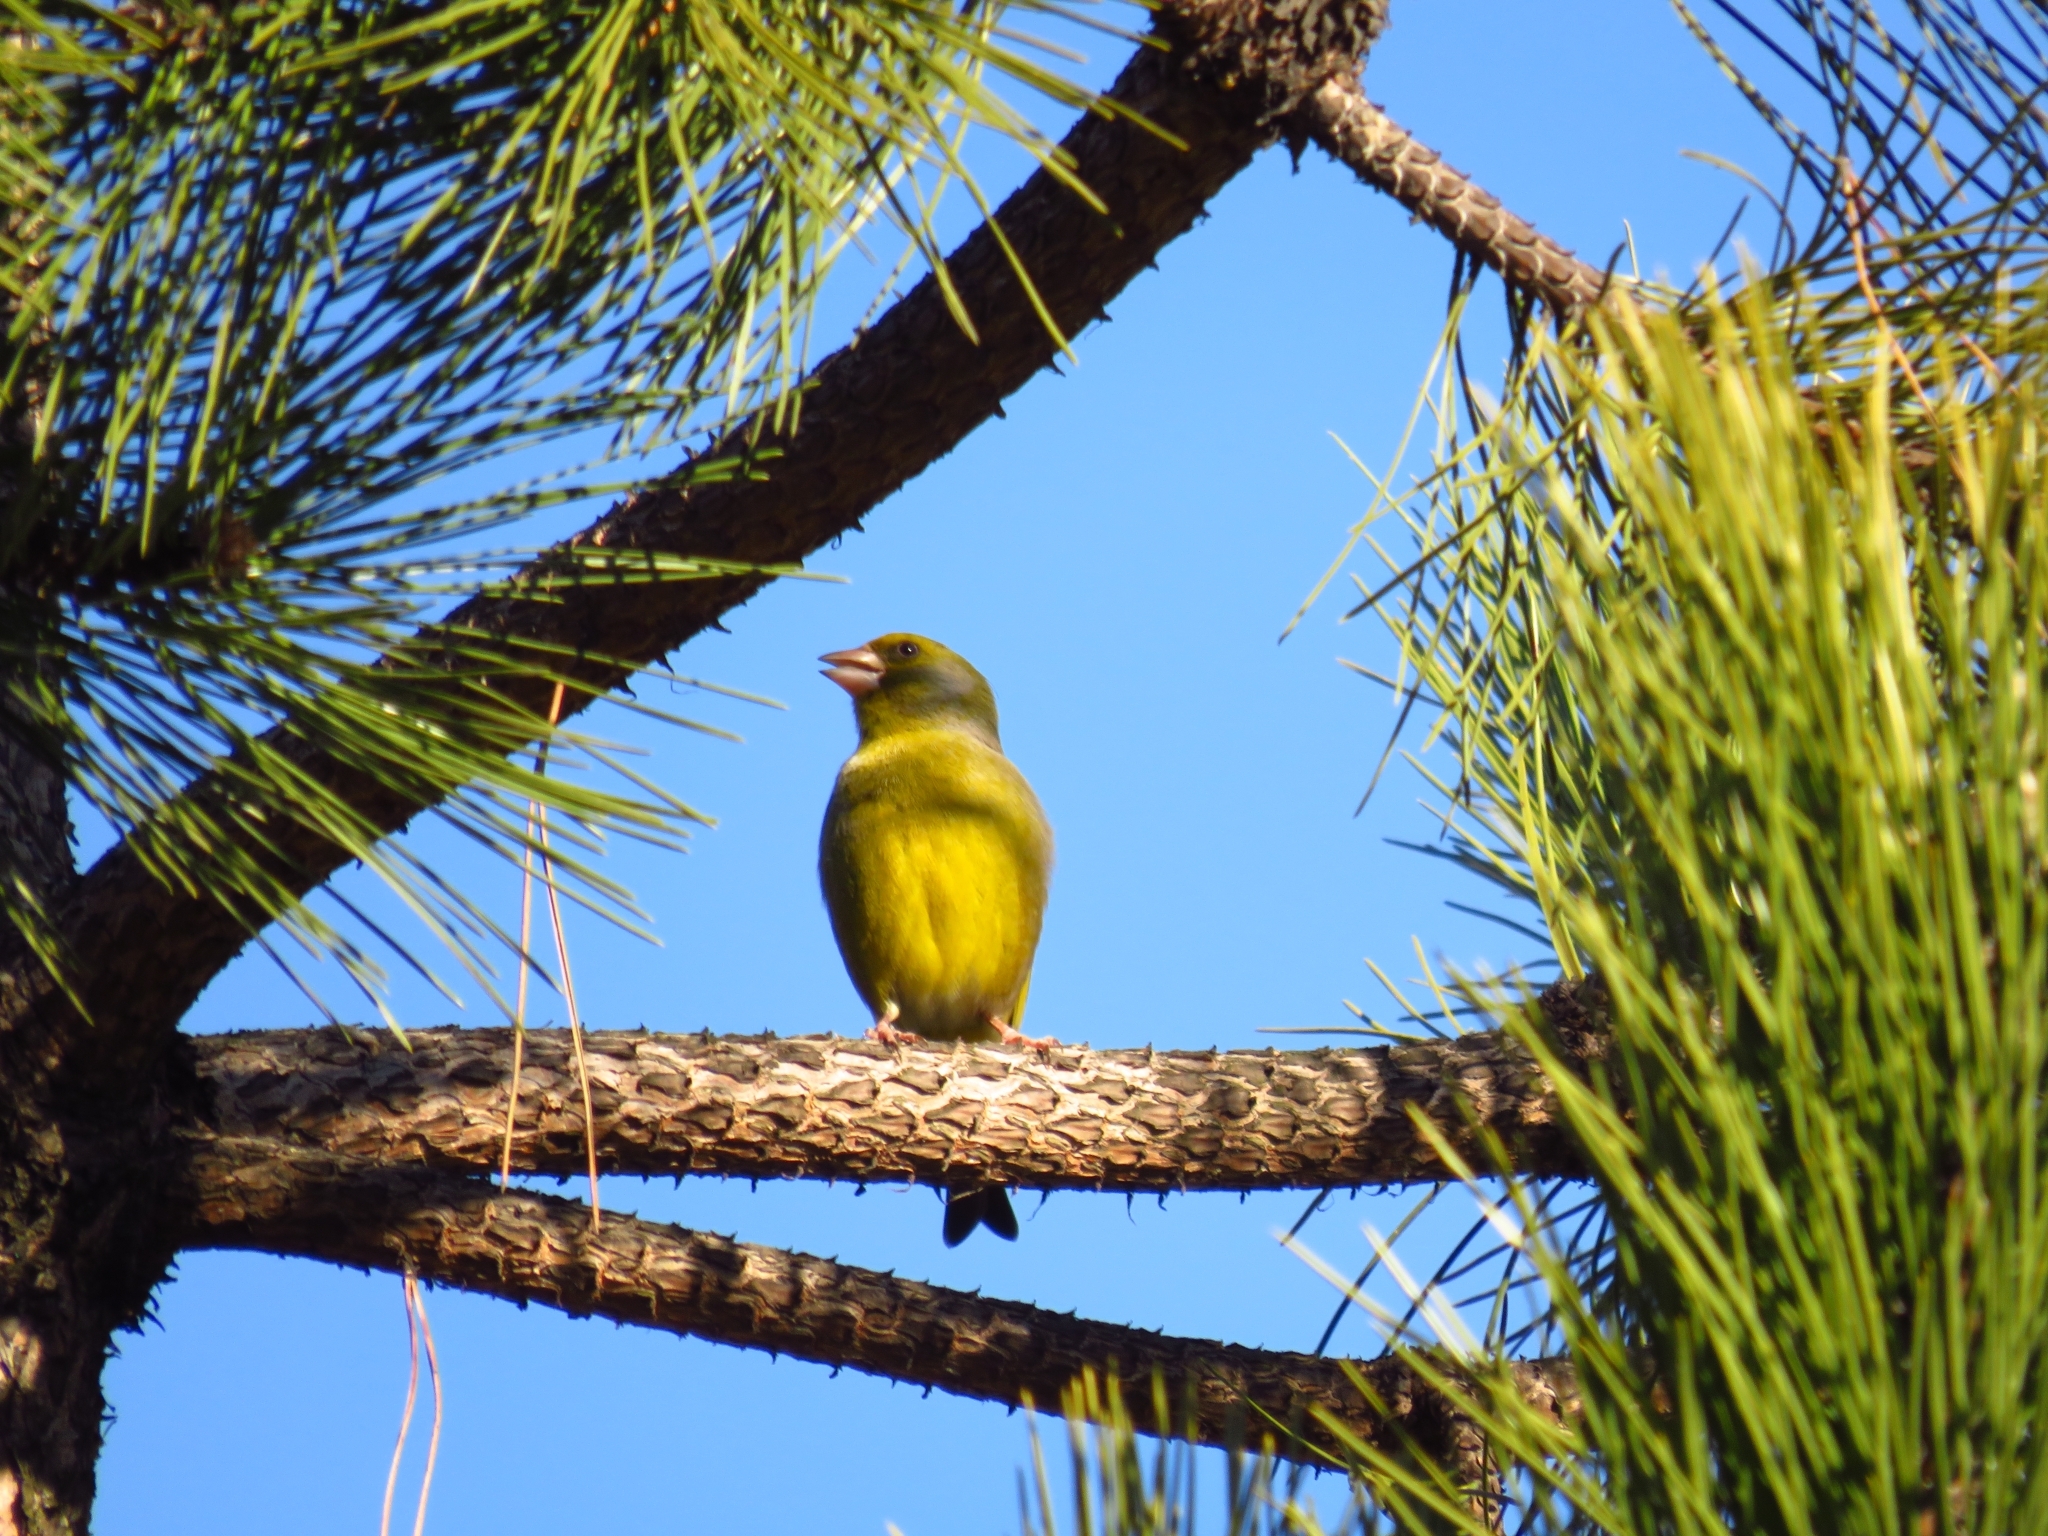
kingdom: Plantae
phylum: Tracheophyta
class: Liliopsida
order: Poales
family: Poaceae
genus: Chloris
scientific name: Chloris chloris
